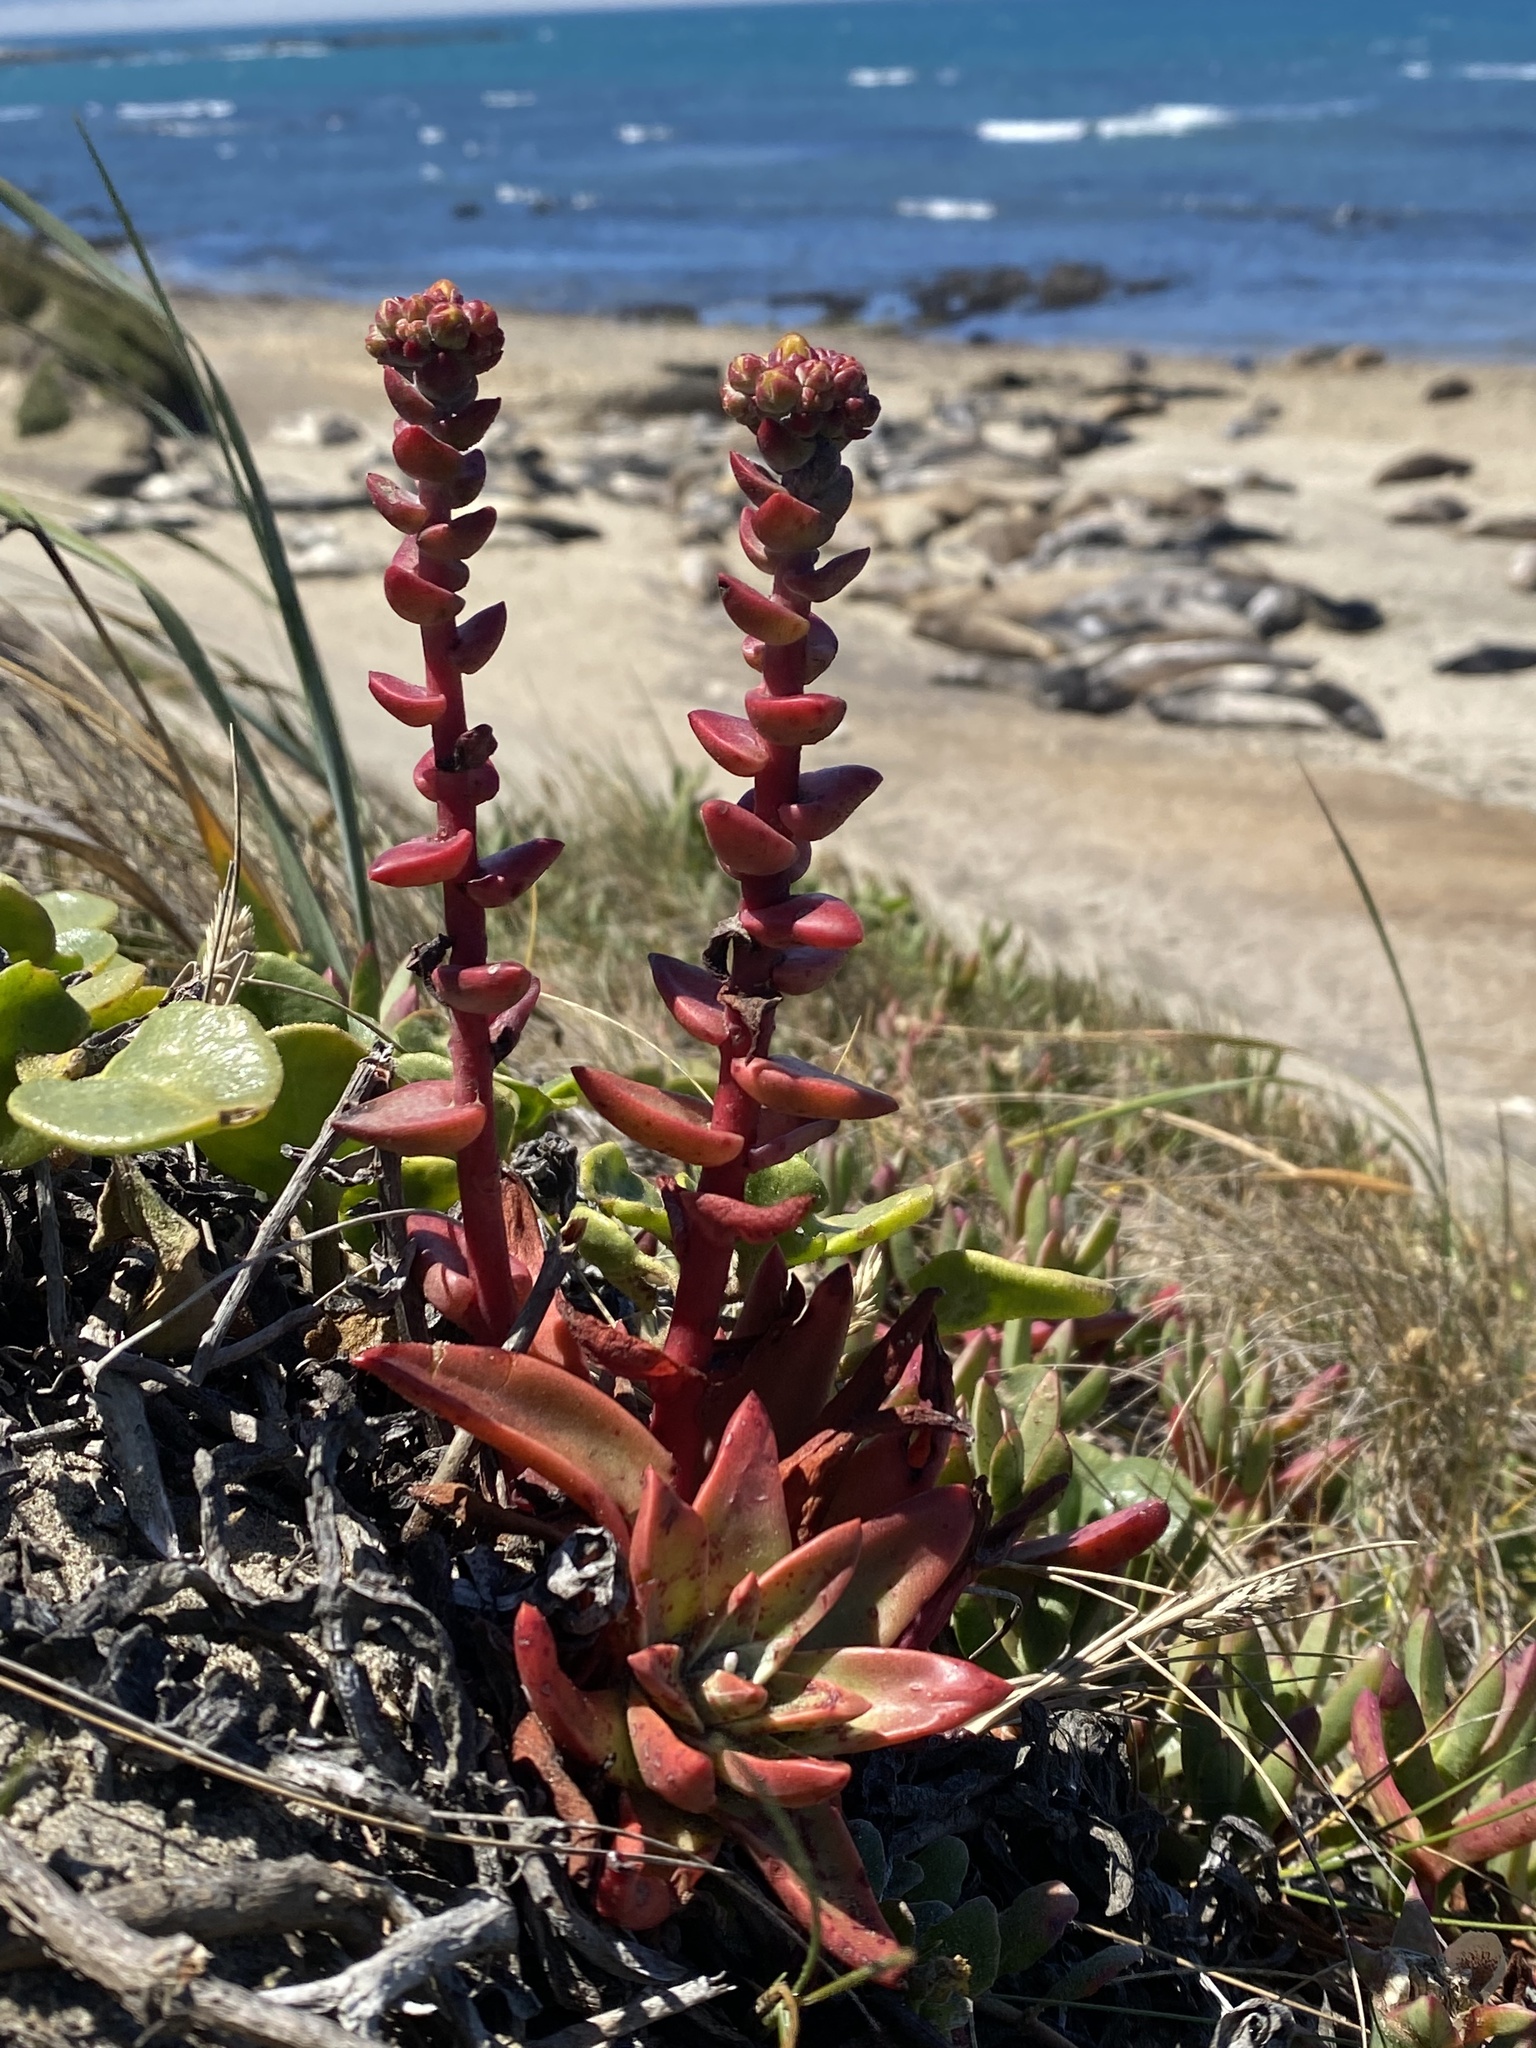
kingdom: Plantae
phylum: Tracheophyta
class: Magnoliopsida
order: Saxifragales
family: Crassulaceae
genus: Dudleya
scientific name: Dudleya caespitosa
